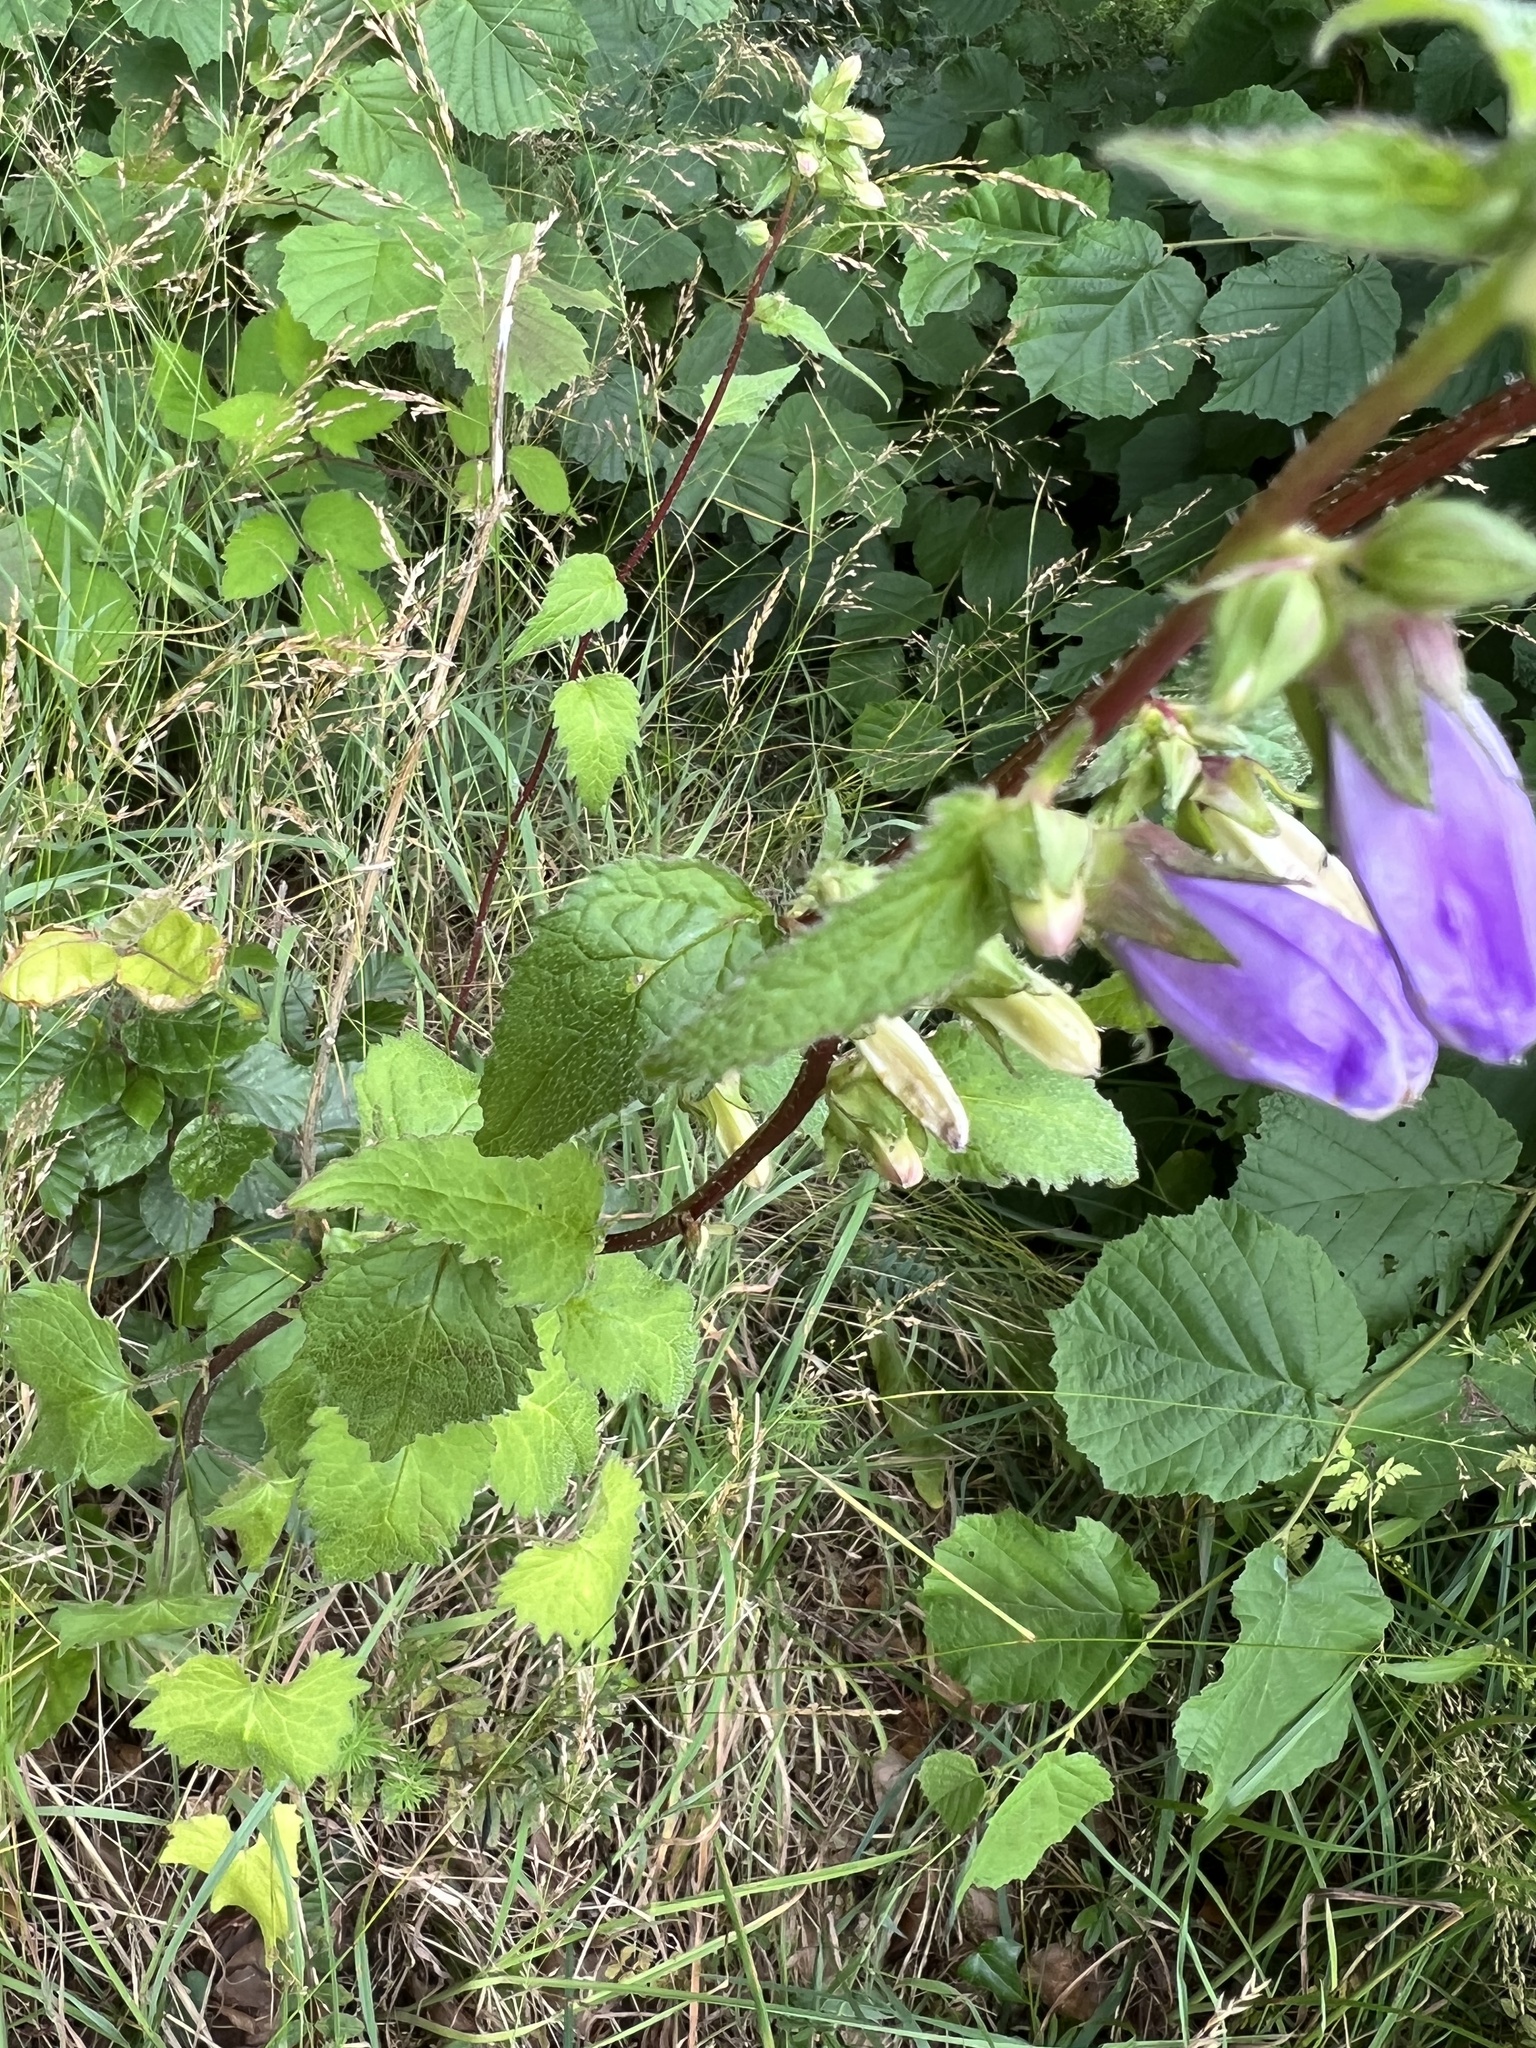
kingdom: Plantae
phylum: Tracheophyta
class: Magnoliopsida
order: Asterales
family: Campanulaceae
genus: Campanula
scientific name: Campanula trachelium
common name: Nettle-leaved bellflower
